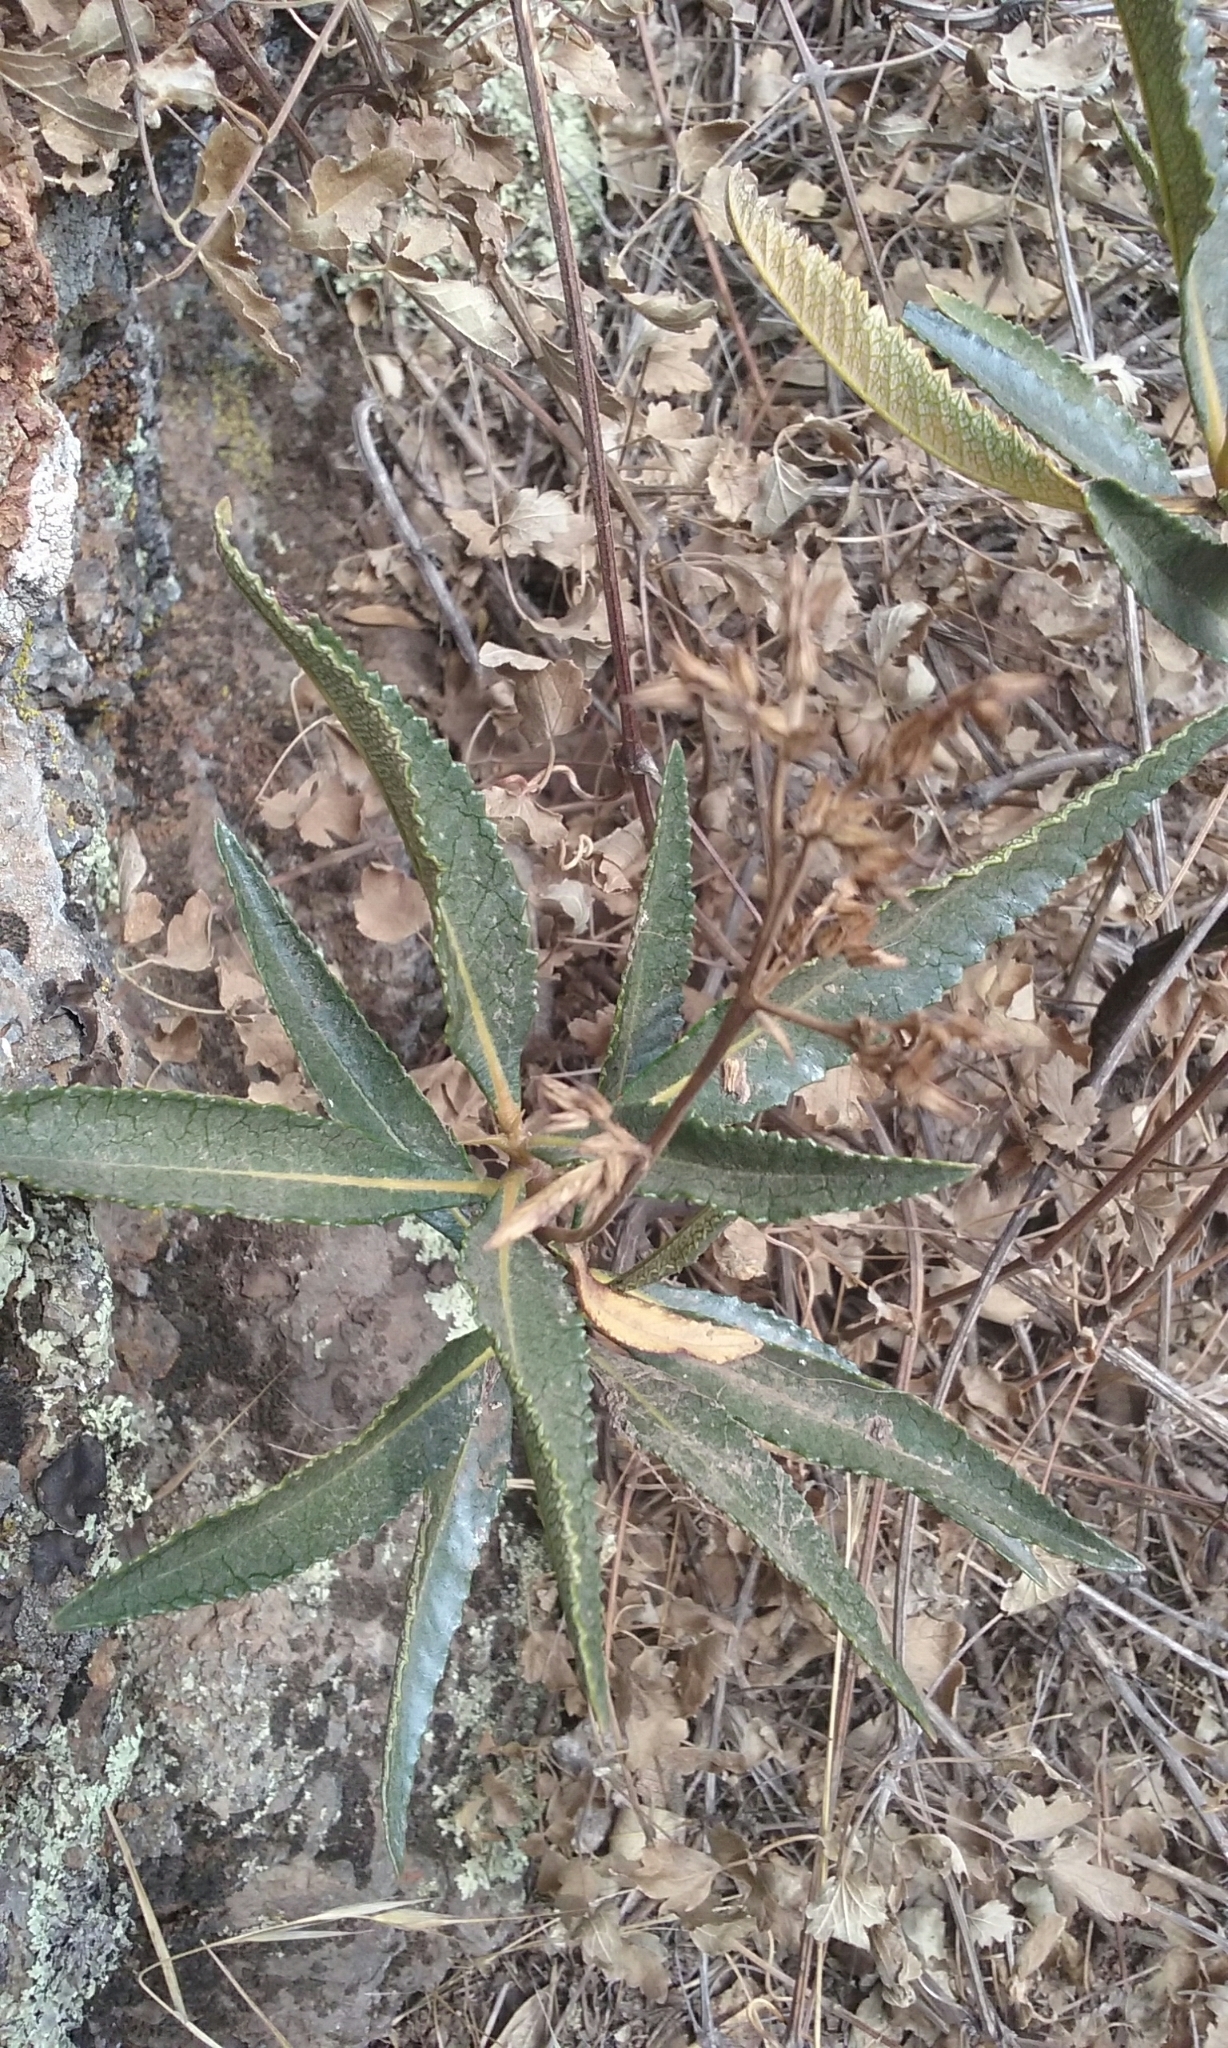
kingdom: Plantae
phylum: Tracheophyta
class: Magnoliopsida
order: Boraginales
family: Namaceae
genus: Eriodictyon
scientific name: Eriodictyon californicum
